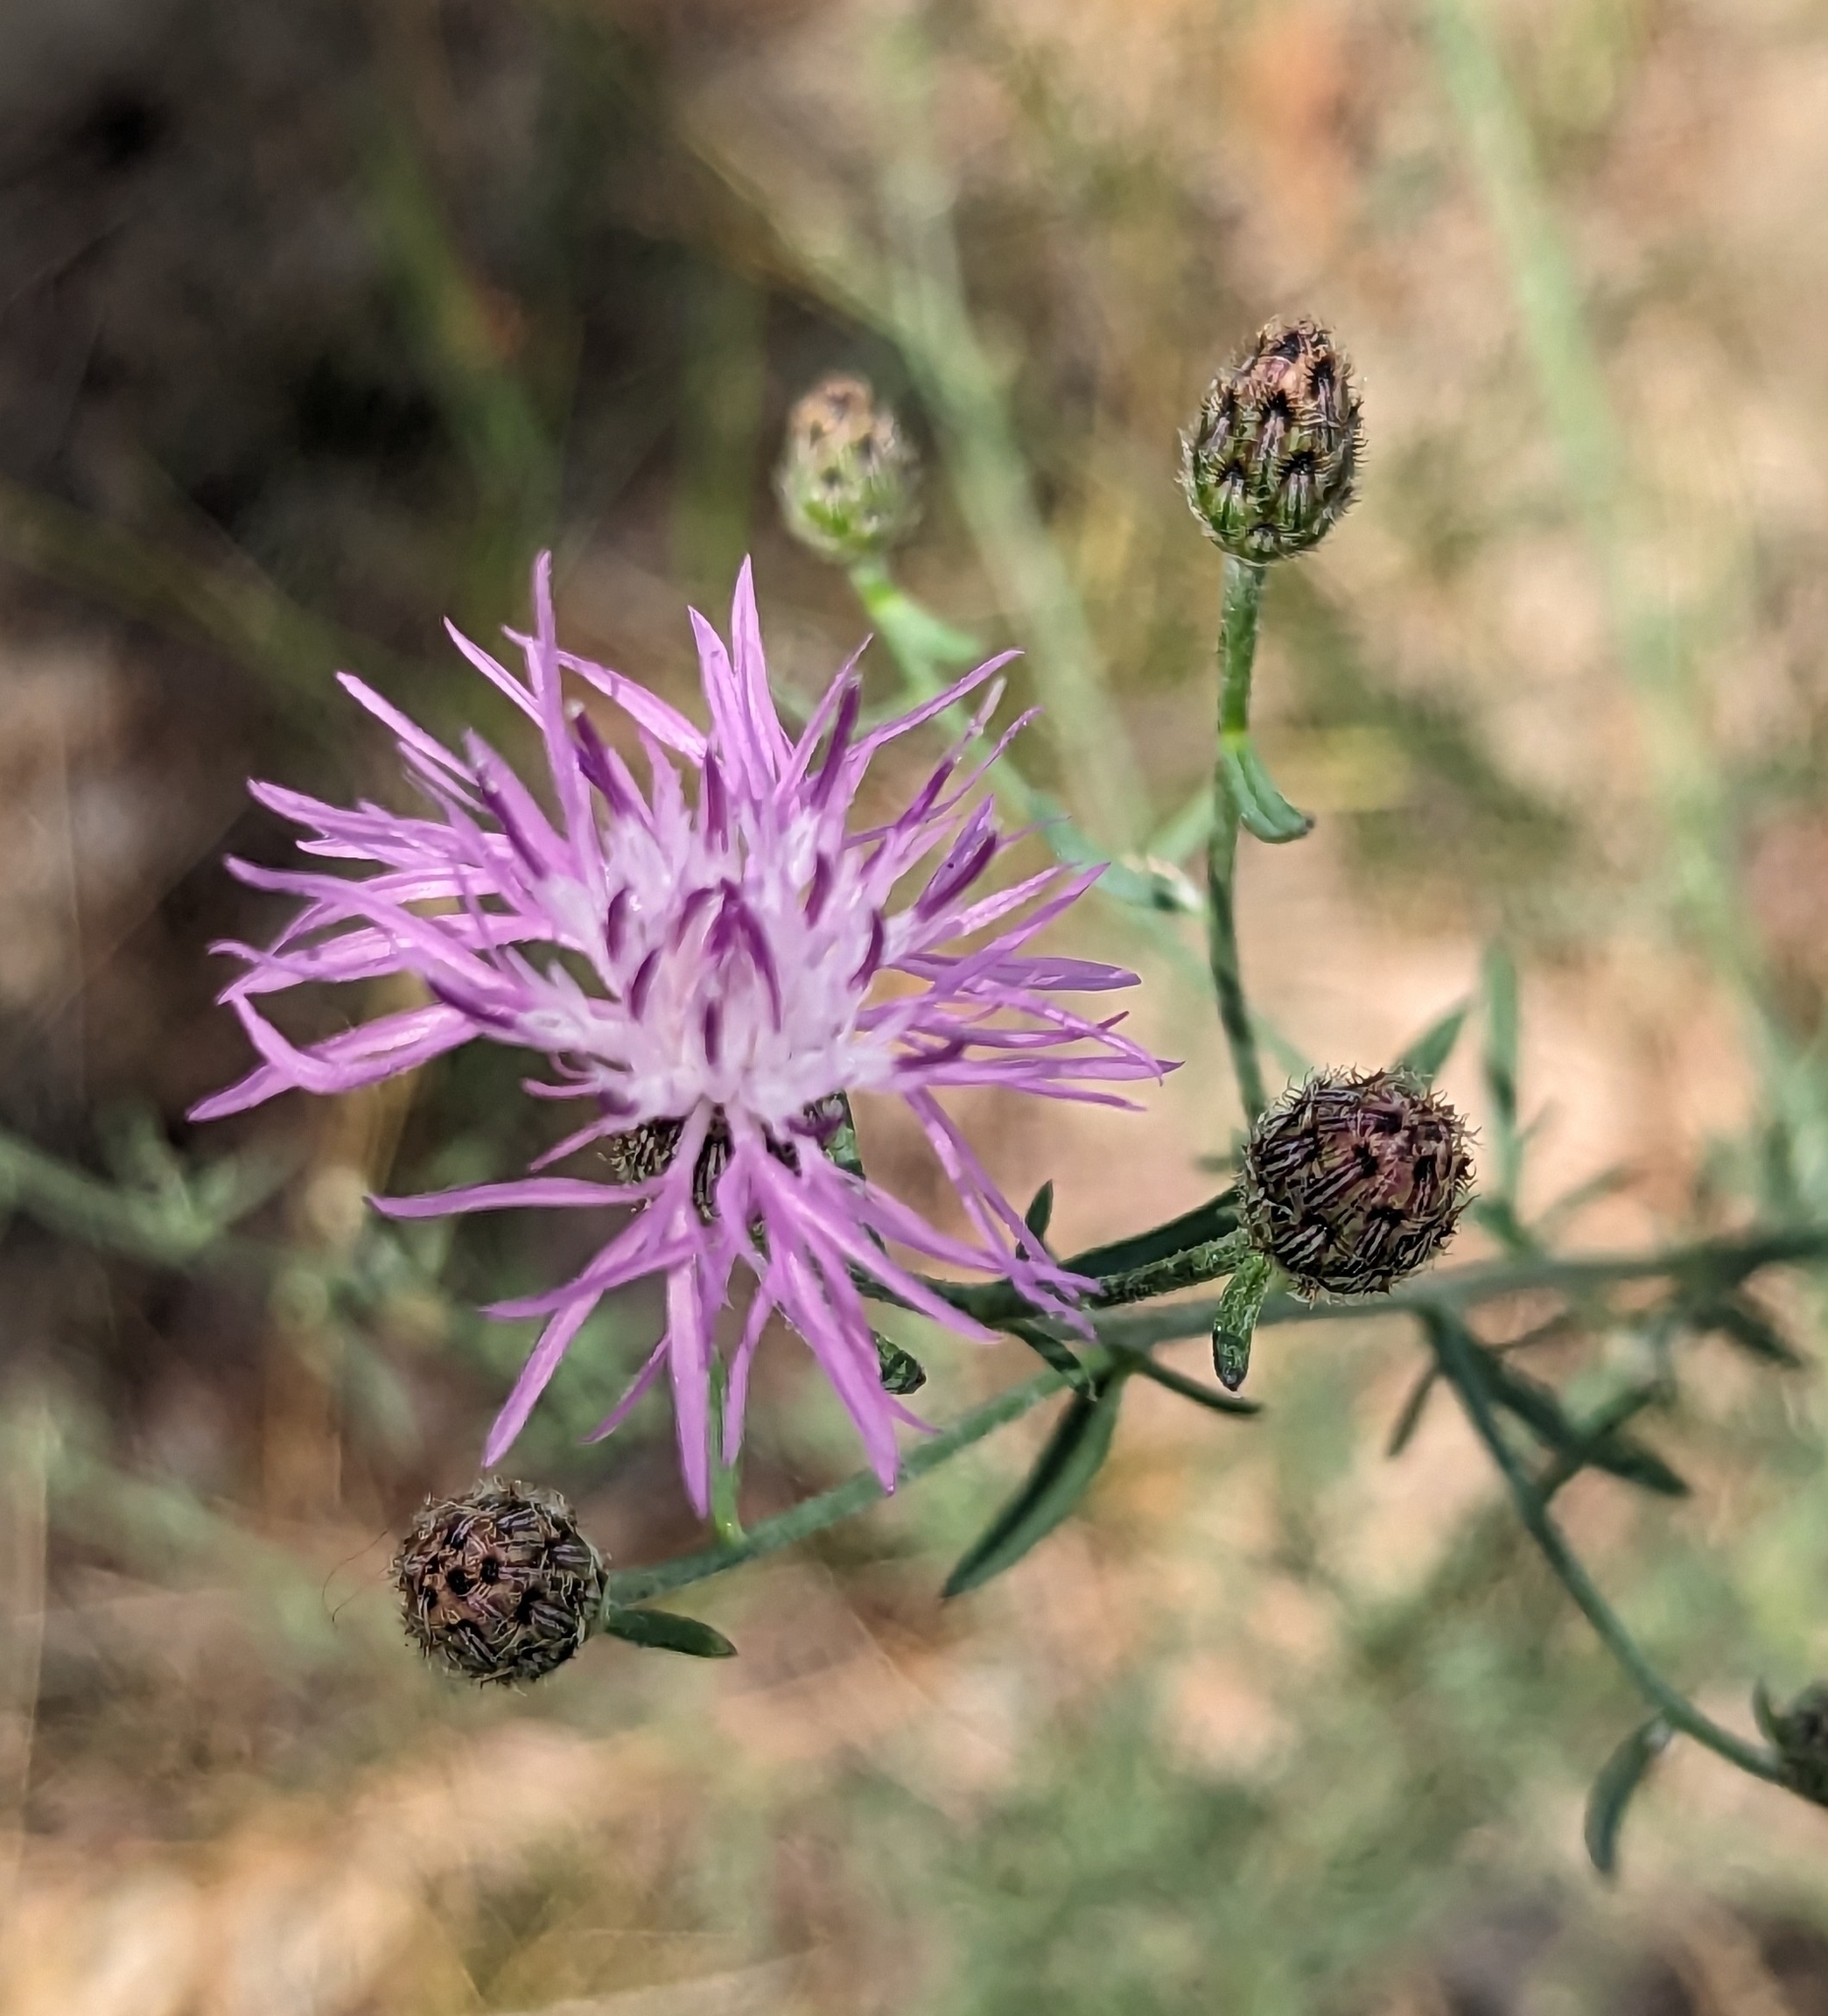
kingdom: Plantae
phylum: Tracheophyta
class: Magnoliopsida
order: Asterales
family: Asteraceae
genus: Centaurea
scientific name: Centaurea stoebe
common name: Spotted knapweed
